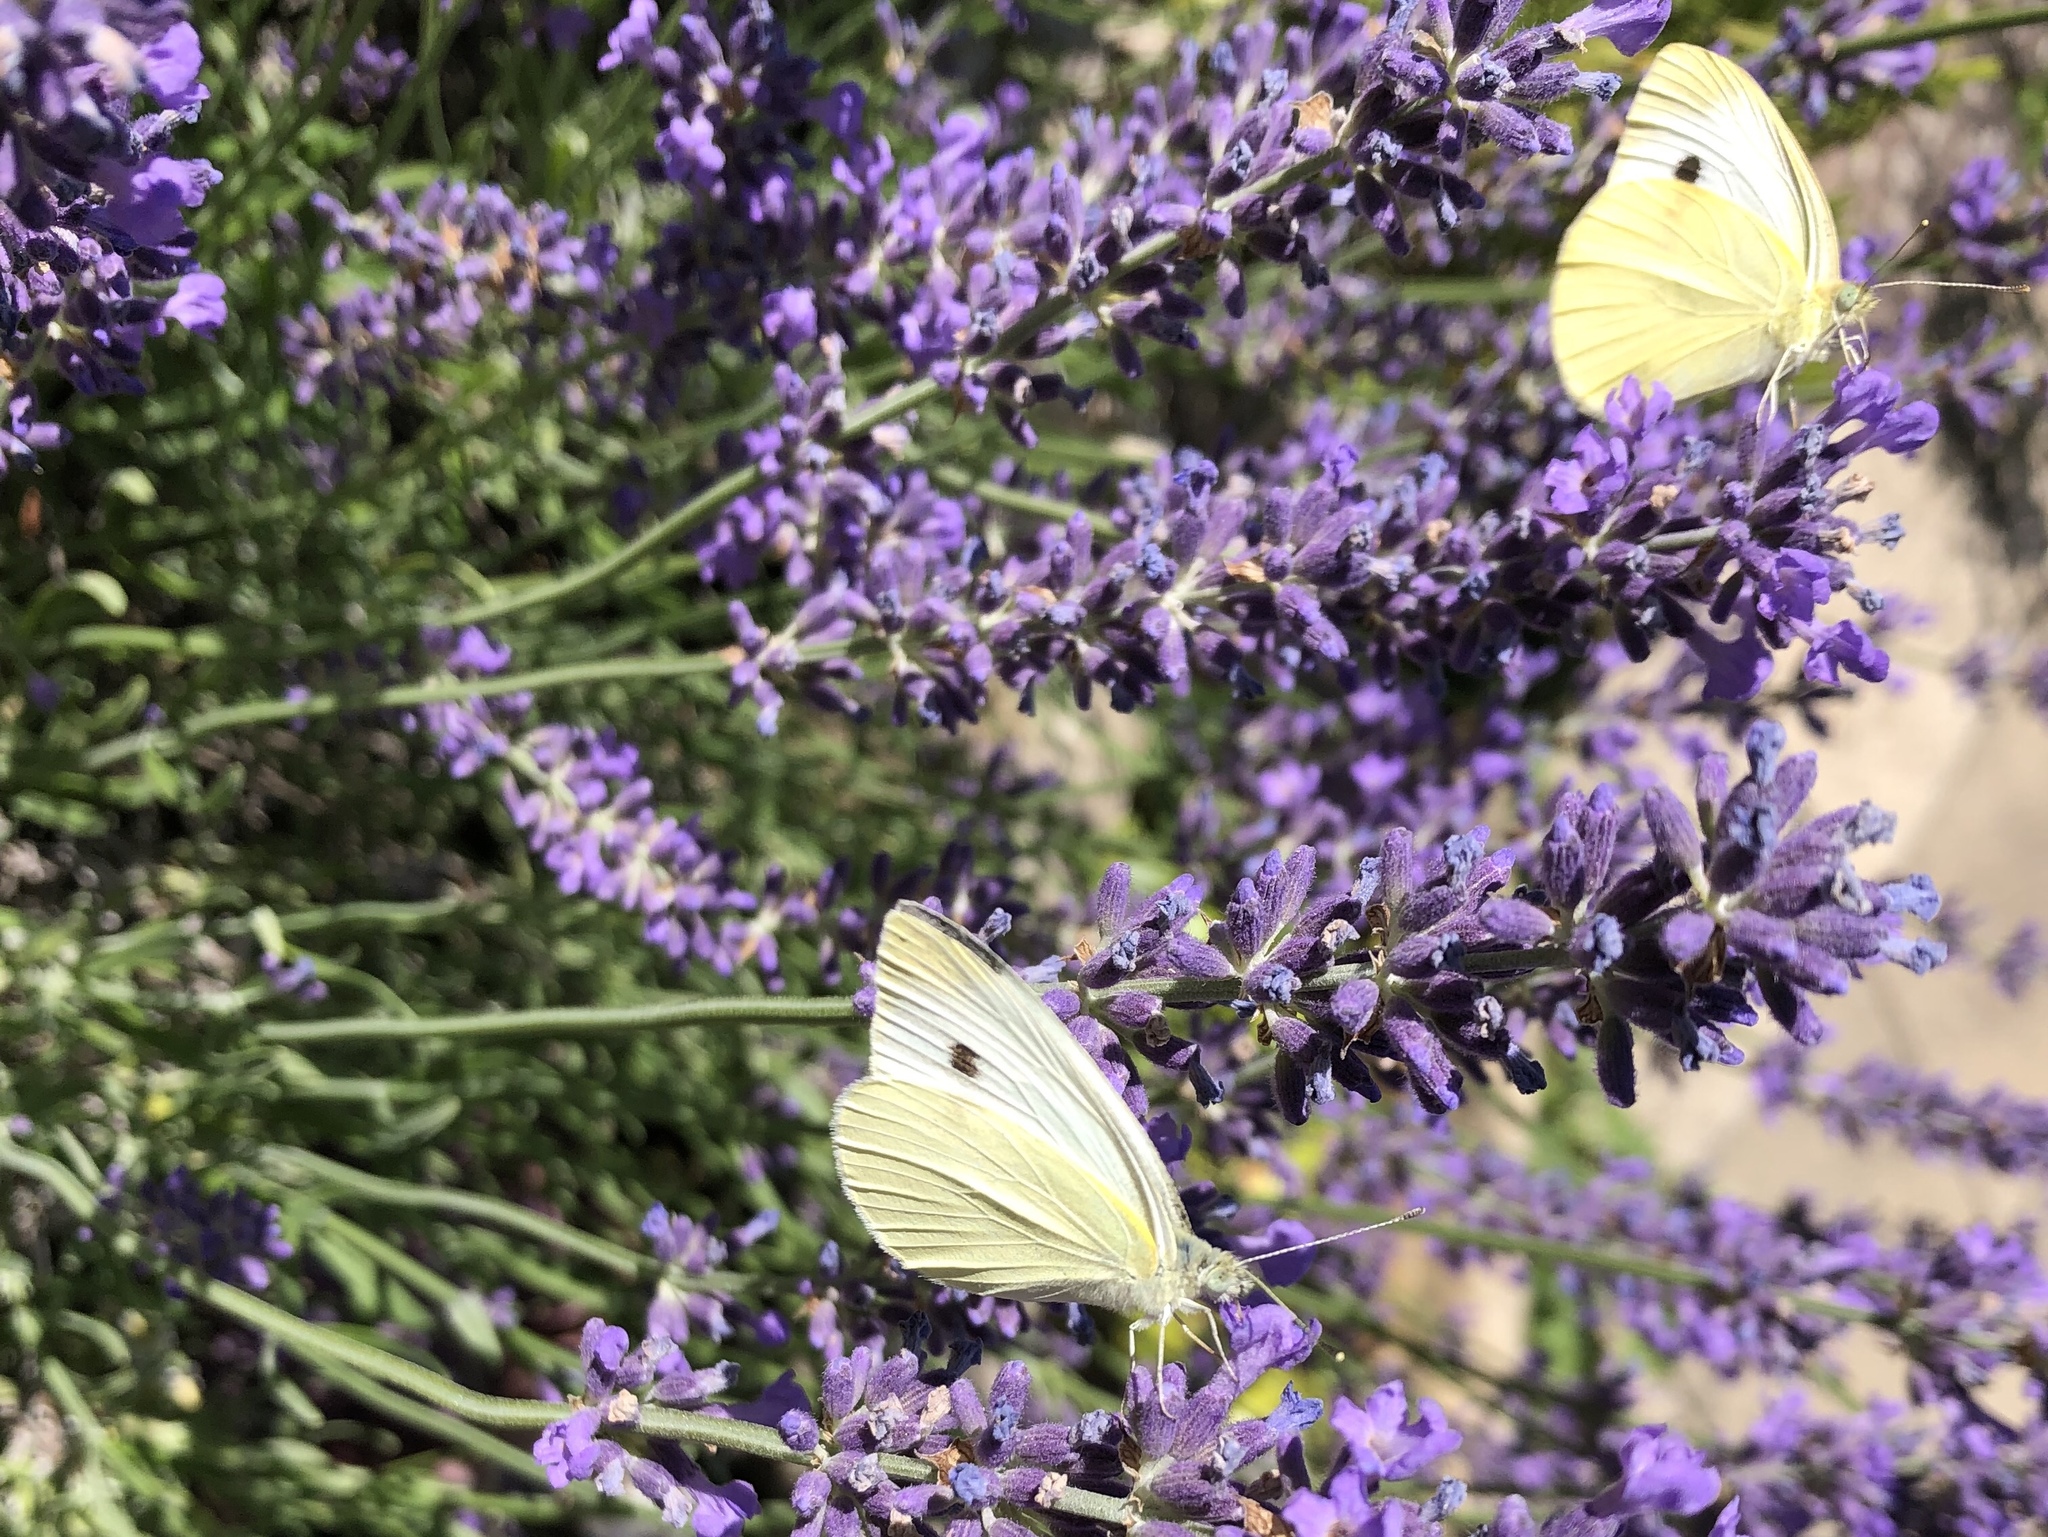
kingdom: Animalia
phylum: Arthropoda
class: Insecta
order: Lepidoptera
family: Pieridae
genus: Pieris
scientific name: Pieris rapae
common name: Small white
